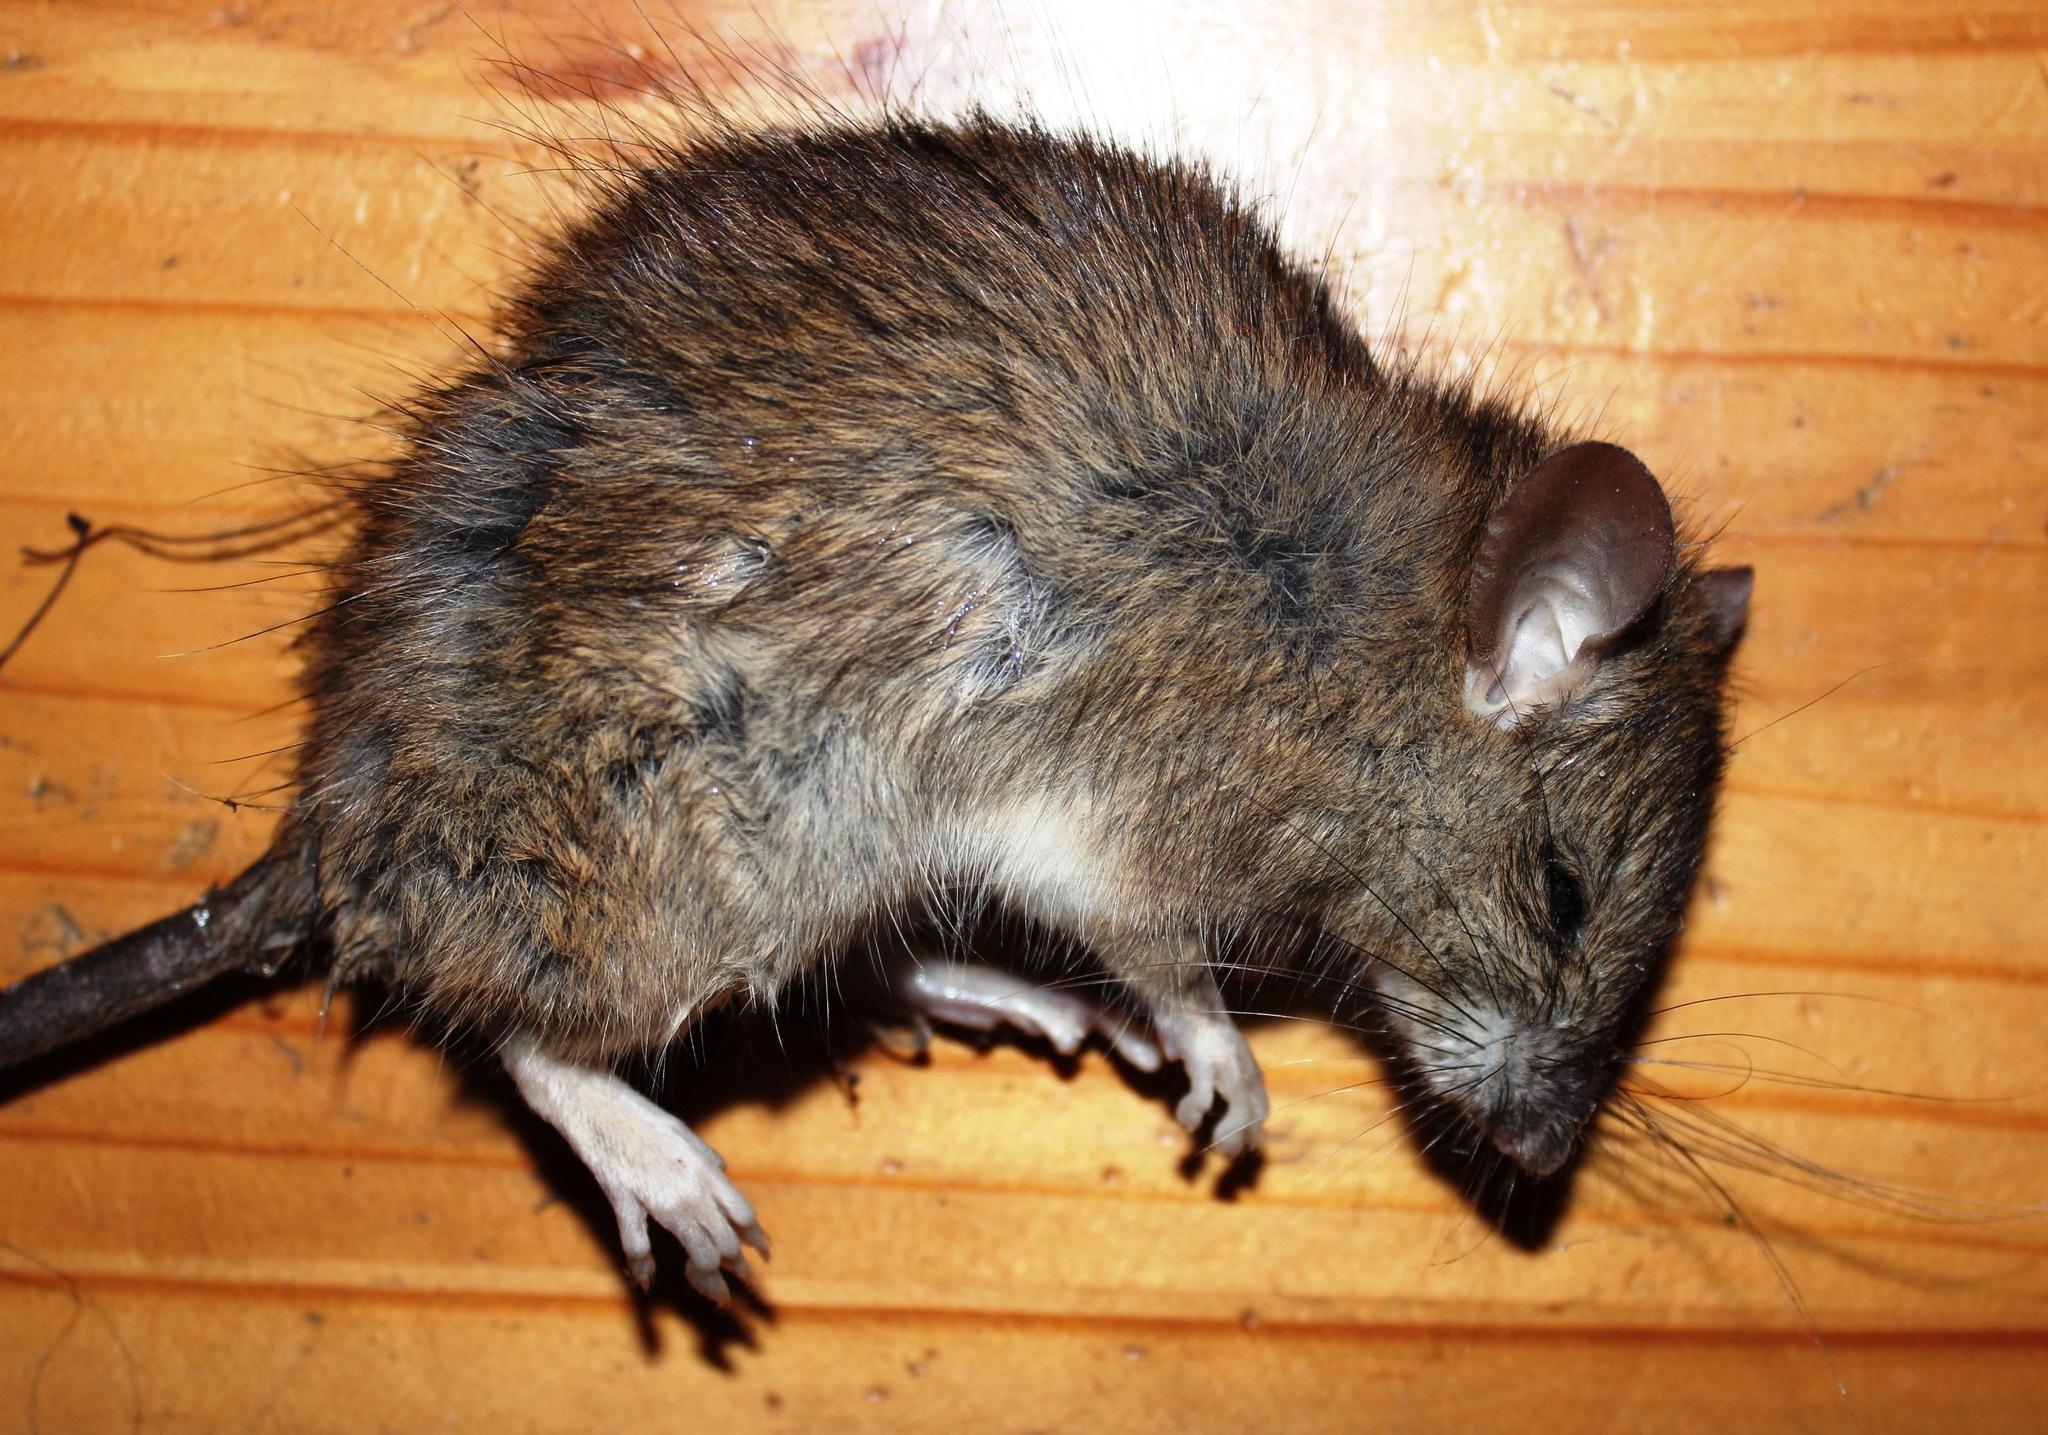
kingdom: Animalia
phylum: Chordata
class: Mammalia
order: Rodentia
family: Muridae
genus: Rattus
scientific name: Rattus rattus
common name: Black rat
